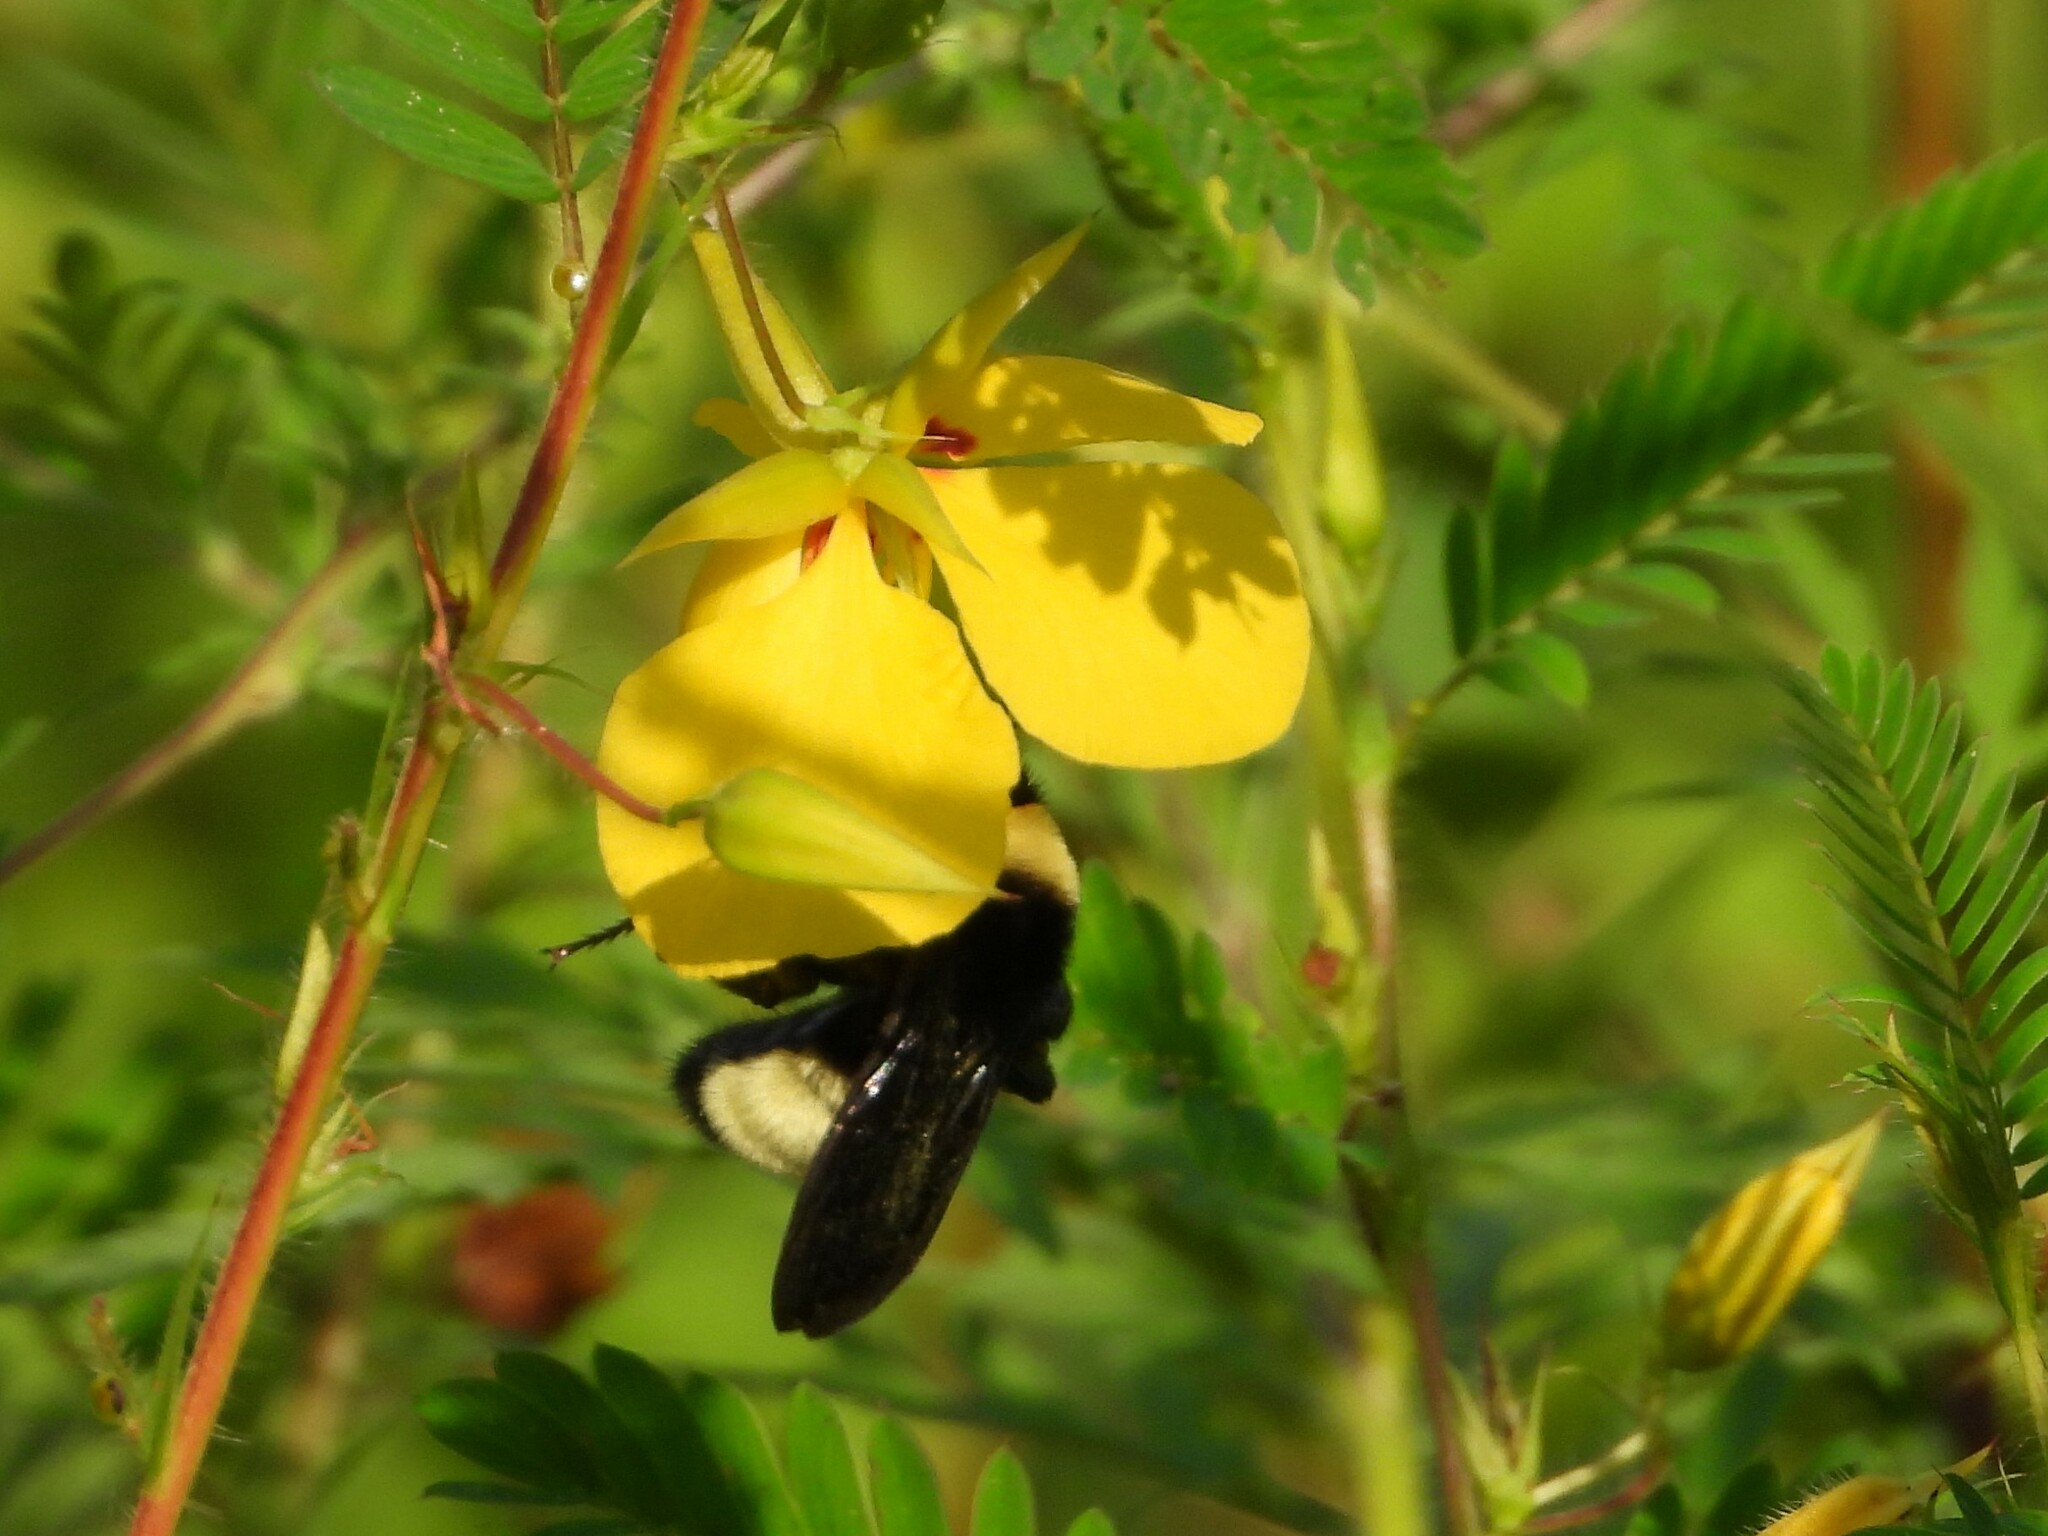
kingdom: Animalia
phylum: Arthropoda
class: Insecta
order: Hymenoptera
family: Apidae
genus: Bombus
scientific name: Bombus pensylvanicus
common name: Bumble bee
